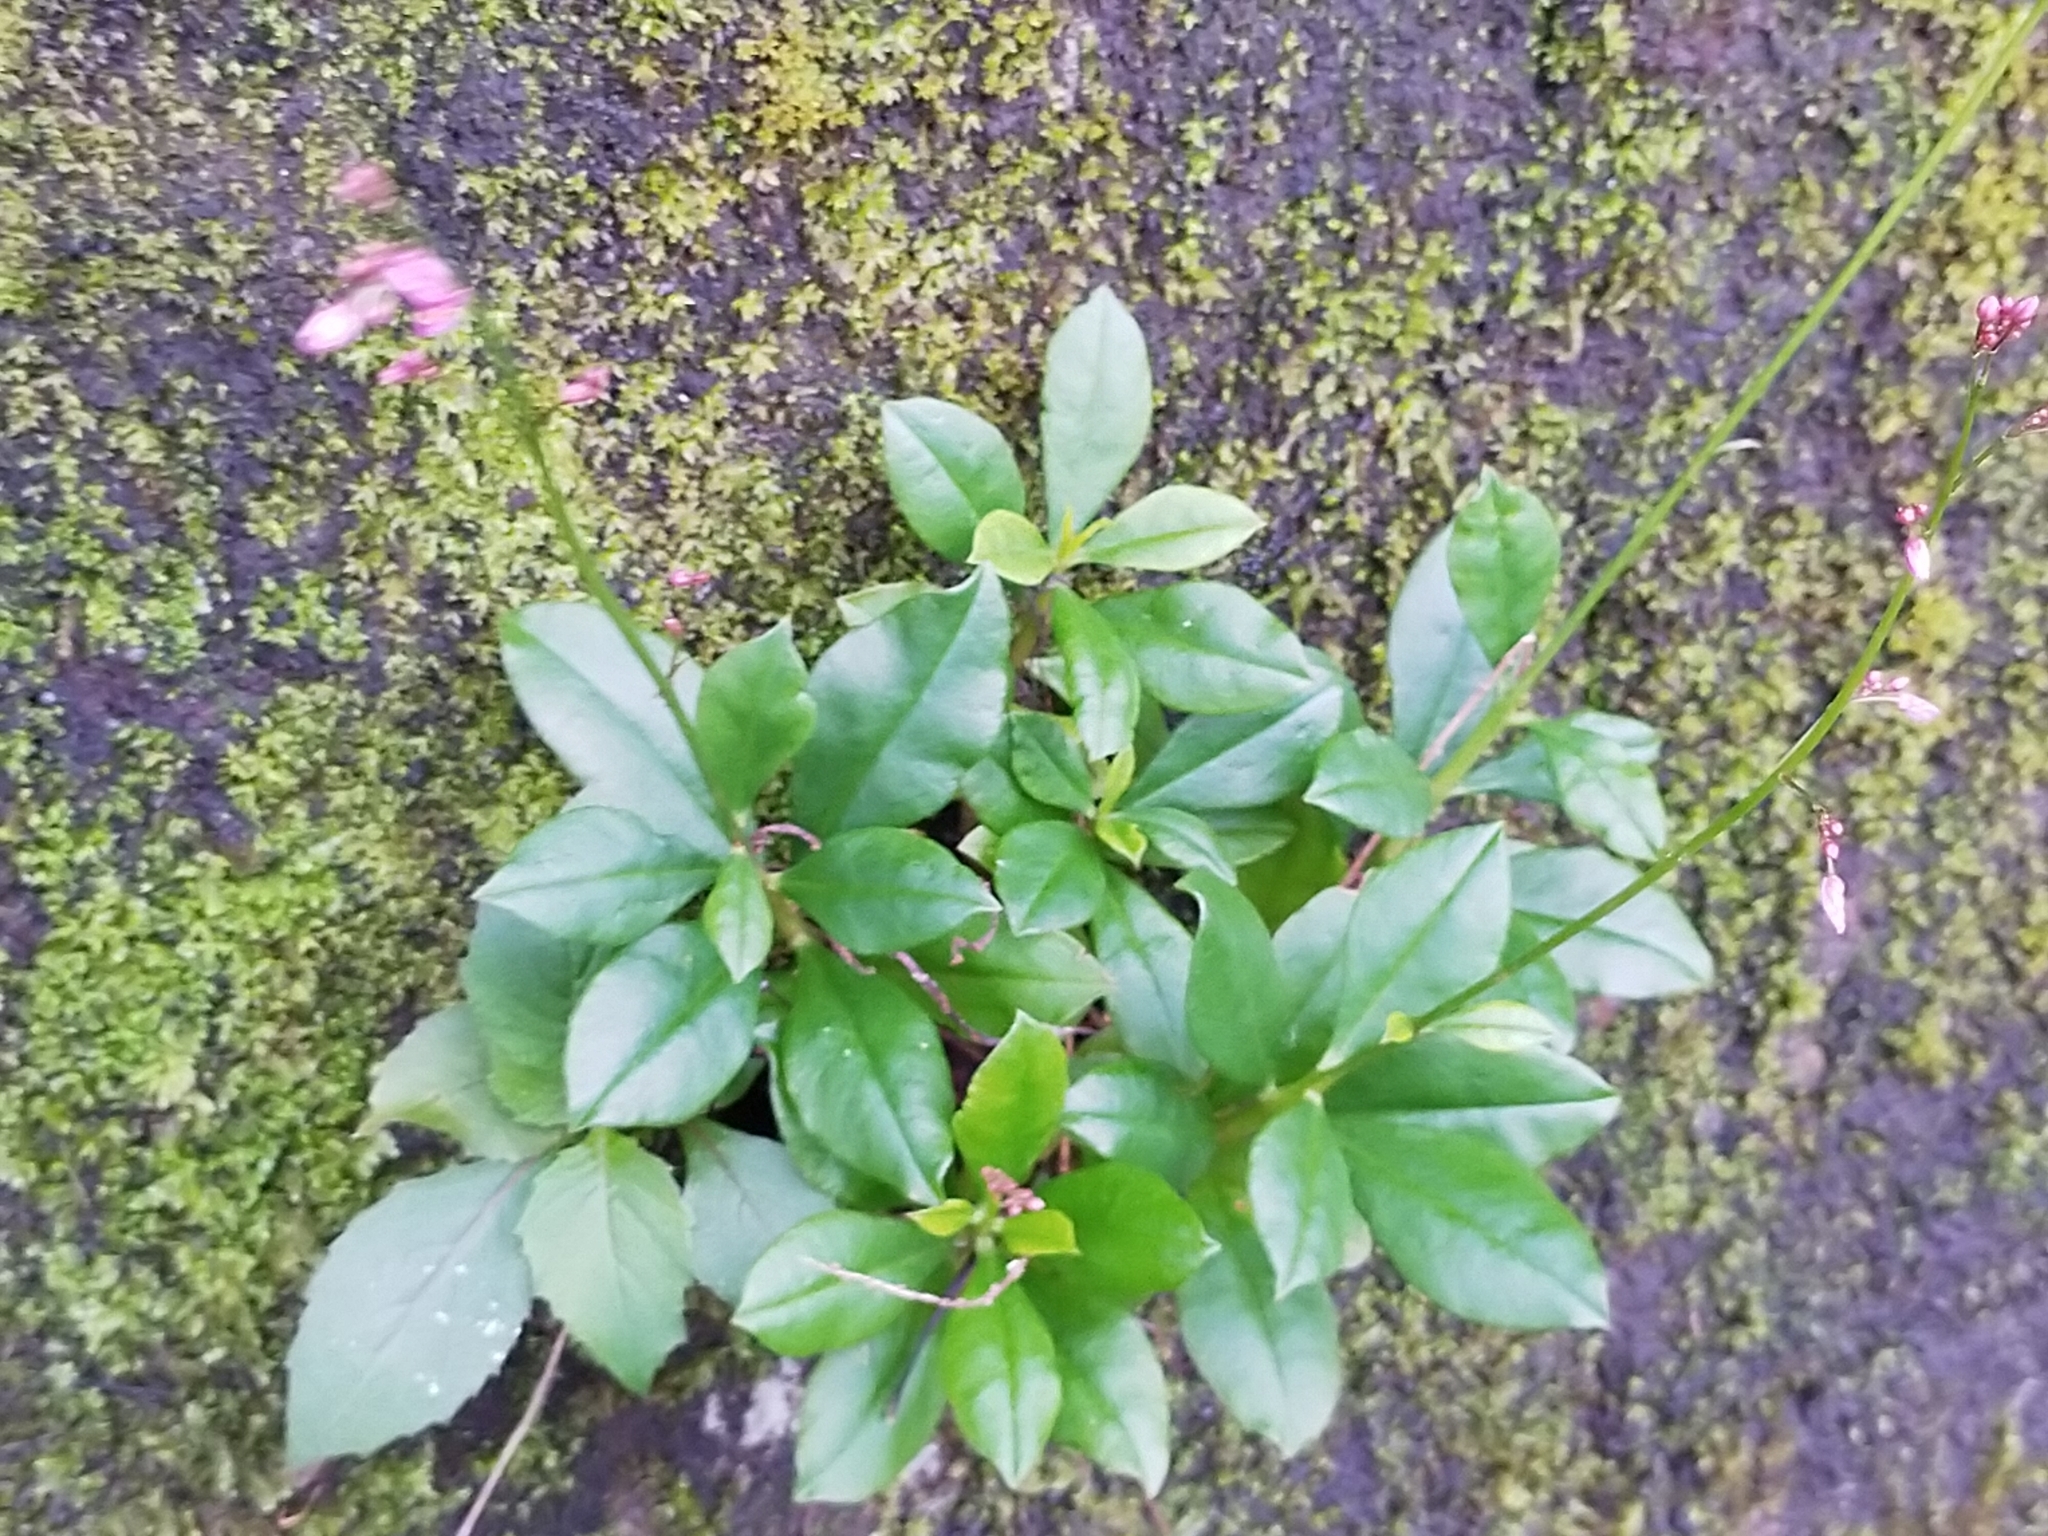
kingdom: Plantae
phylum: Tracheophyta
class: Magnoliopsida
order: Caryophyllales
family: Talinaceae
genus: Talinum
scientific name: Talinum paniculatum
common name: Jewels of opar
